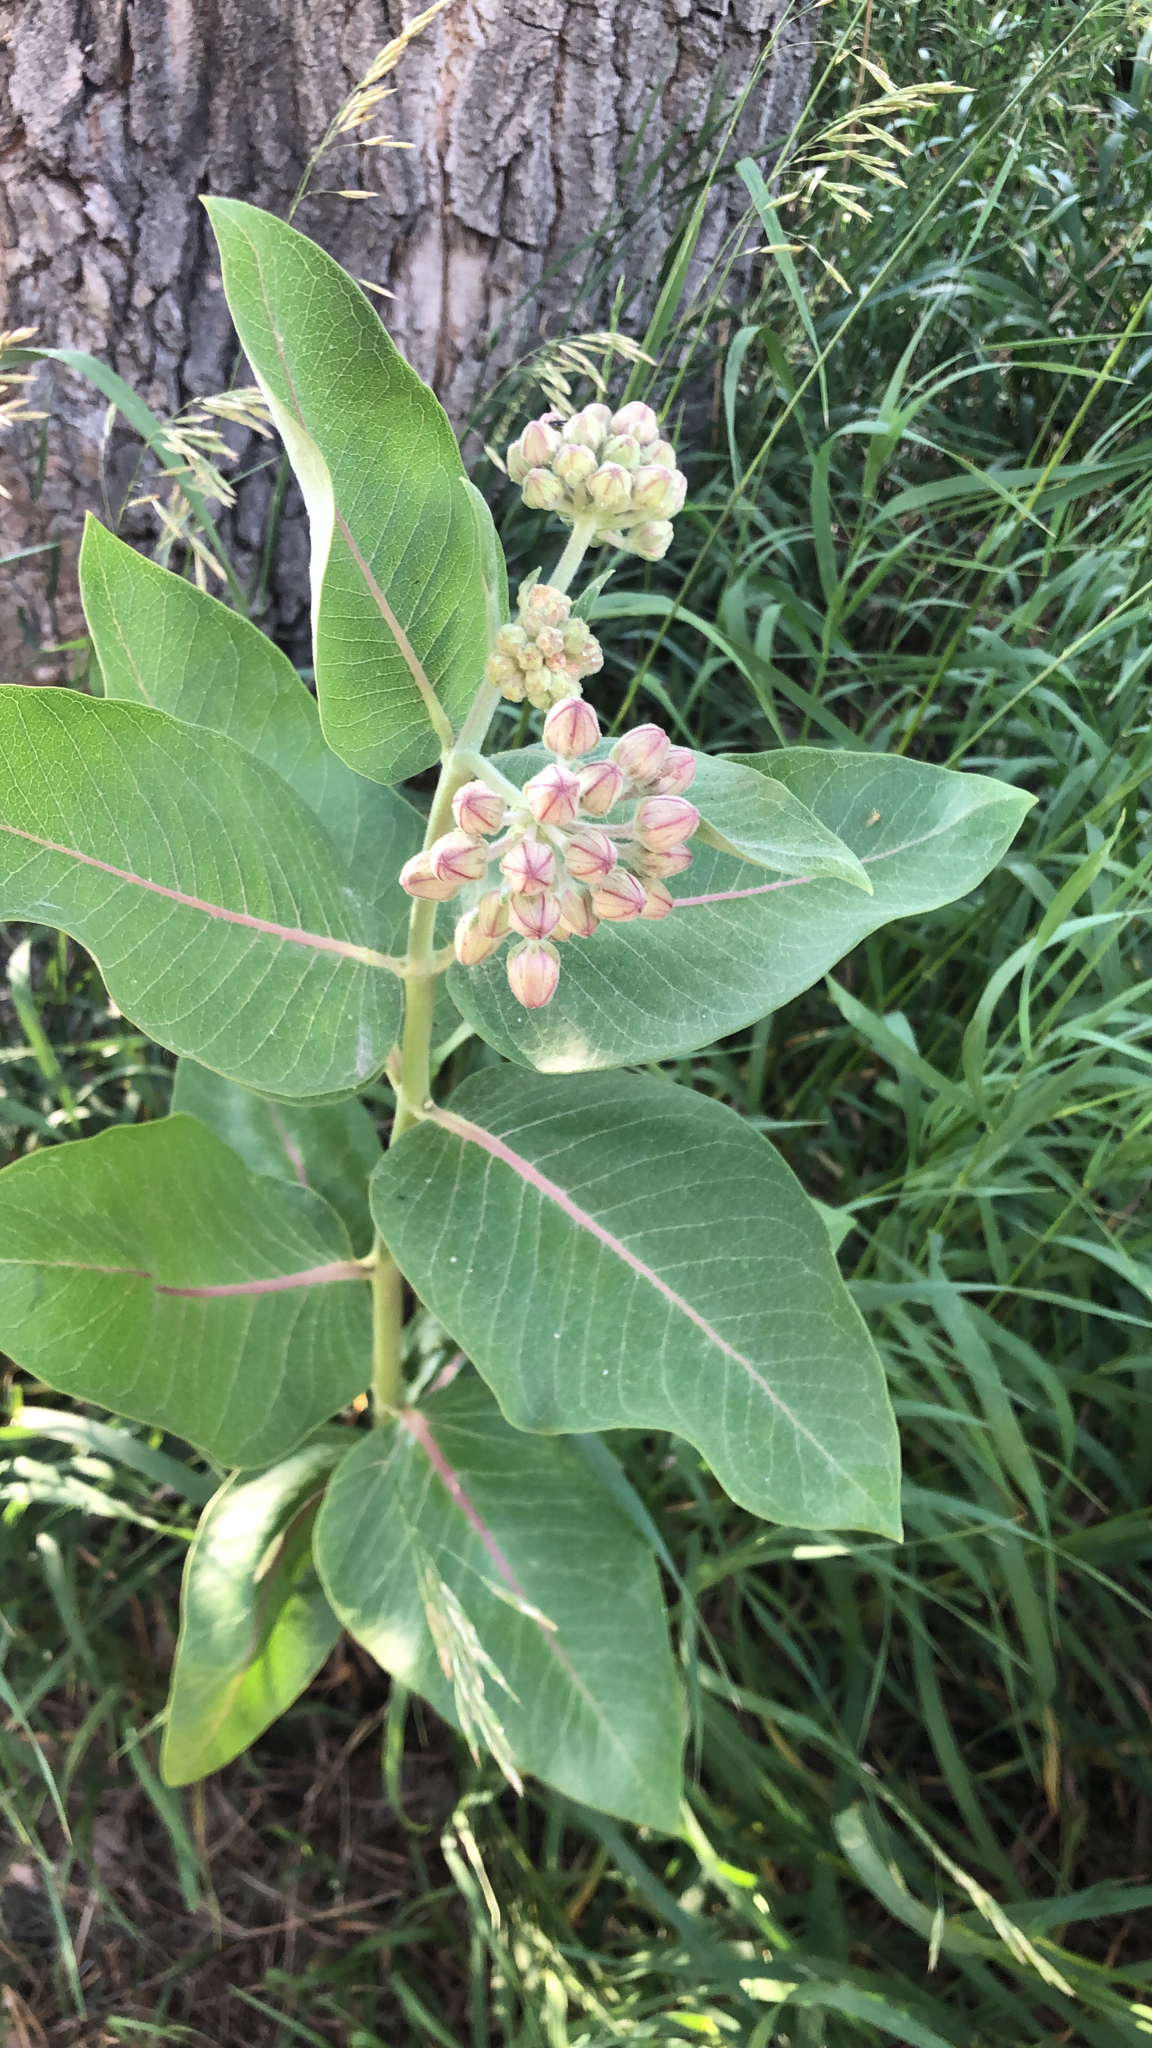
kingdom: Plantae
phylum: Tracheophyta
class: Magnoliopsida
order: Gentianales
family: Apocynaceae
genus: Asclepias
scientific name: Asclepias speciosa
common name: Showy milkweed
